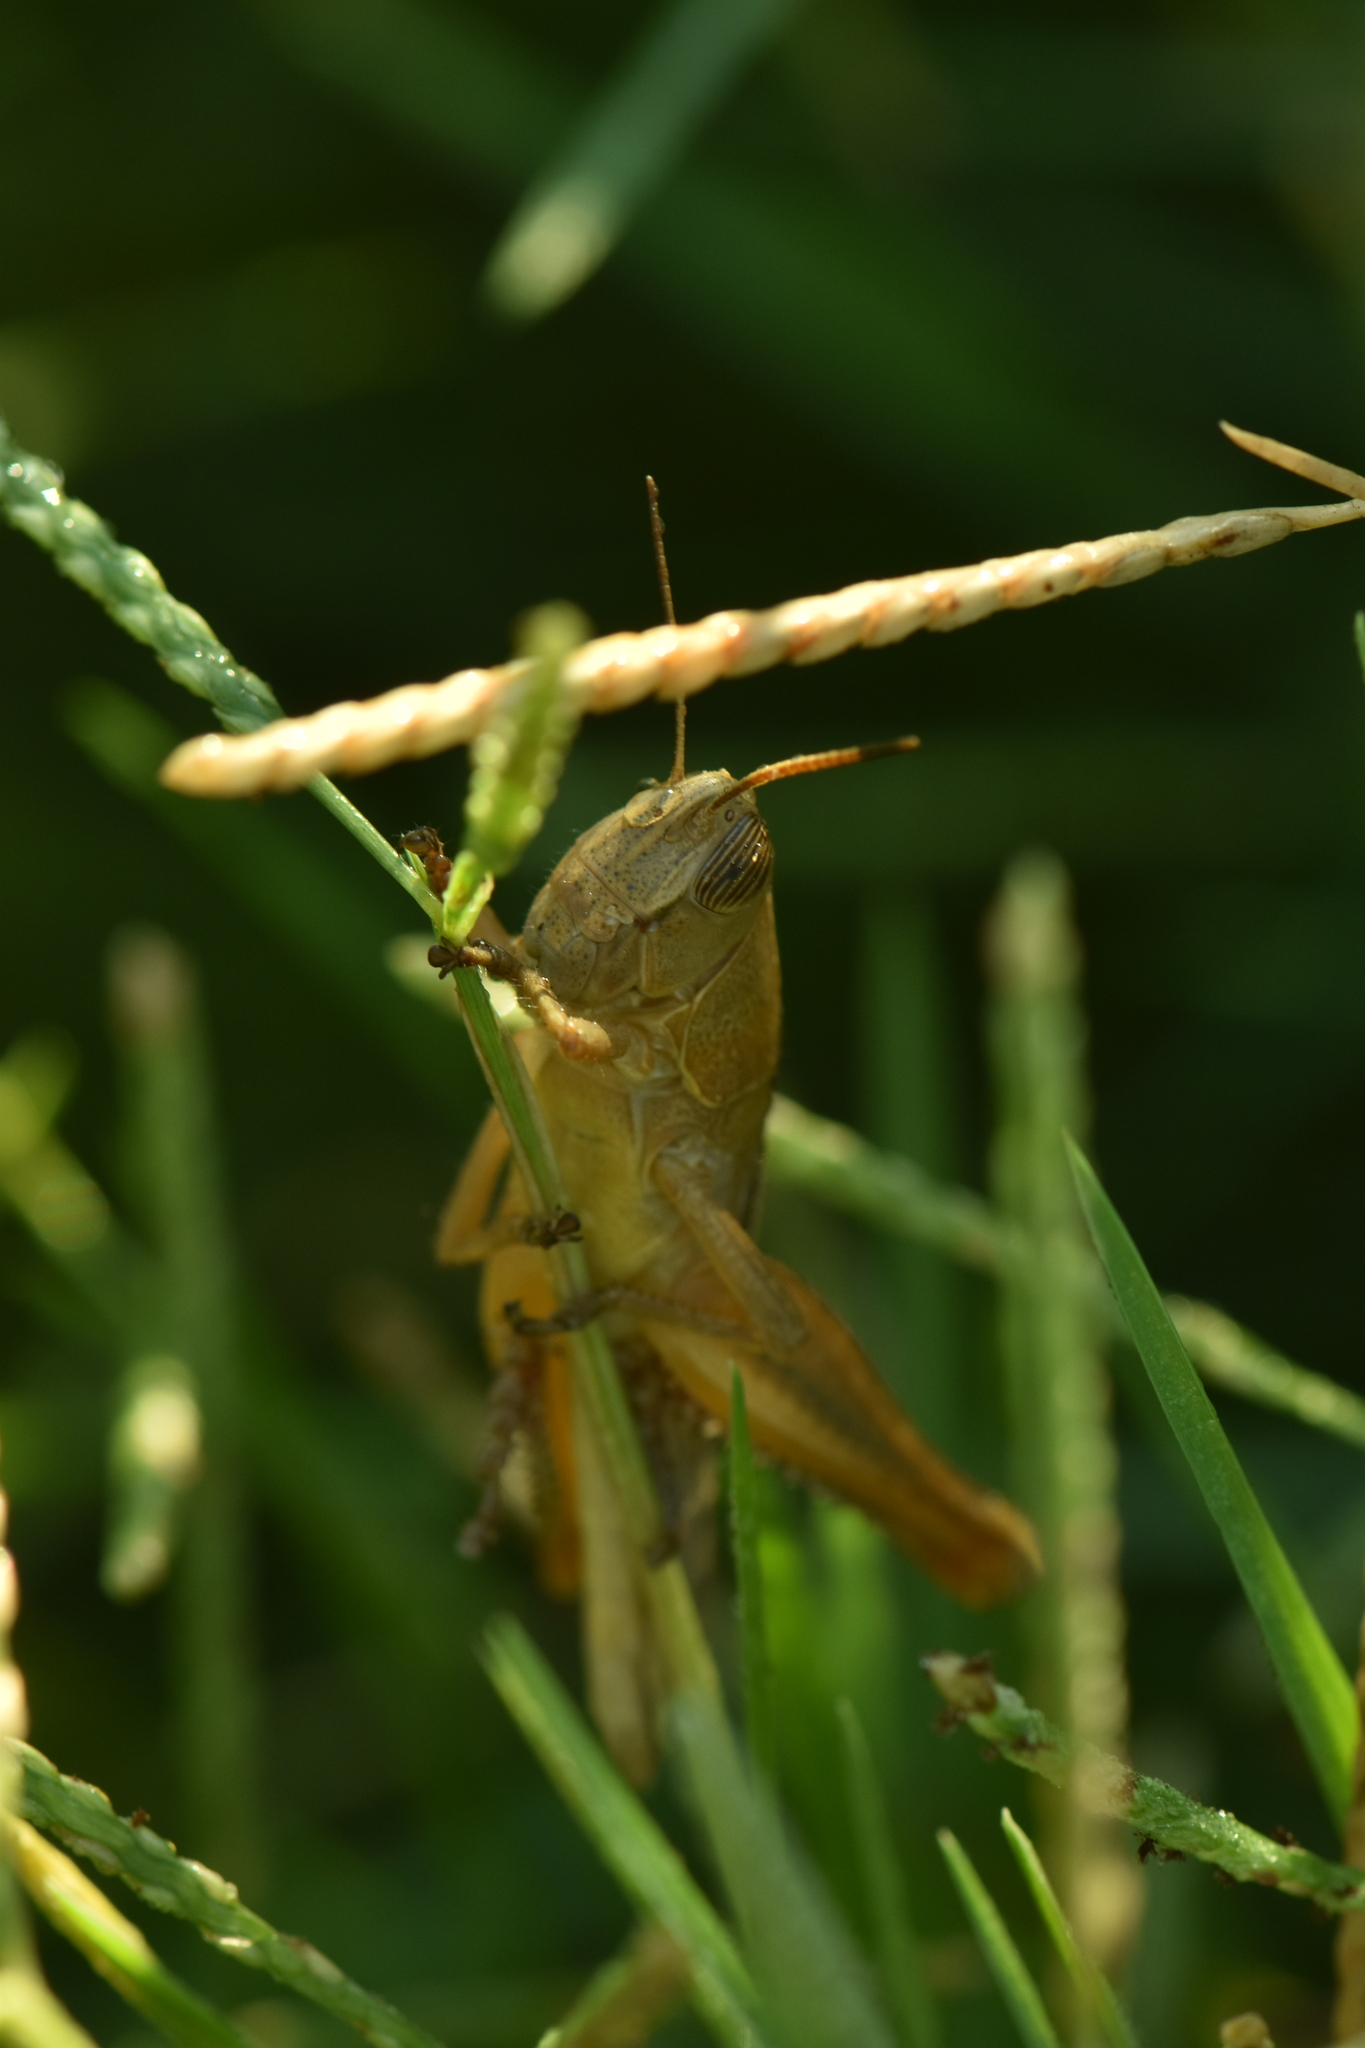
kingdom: Animalia
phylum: Arthropoda
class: Insecta
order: Orthoptera
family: Acrididae
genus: Eyprepocnemis
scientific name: Eyprepocnemis plorans
